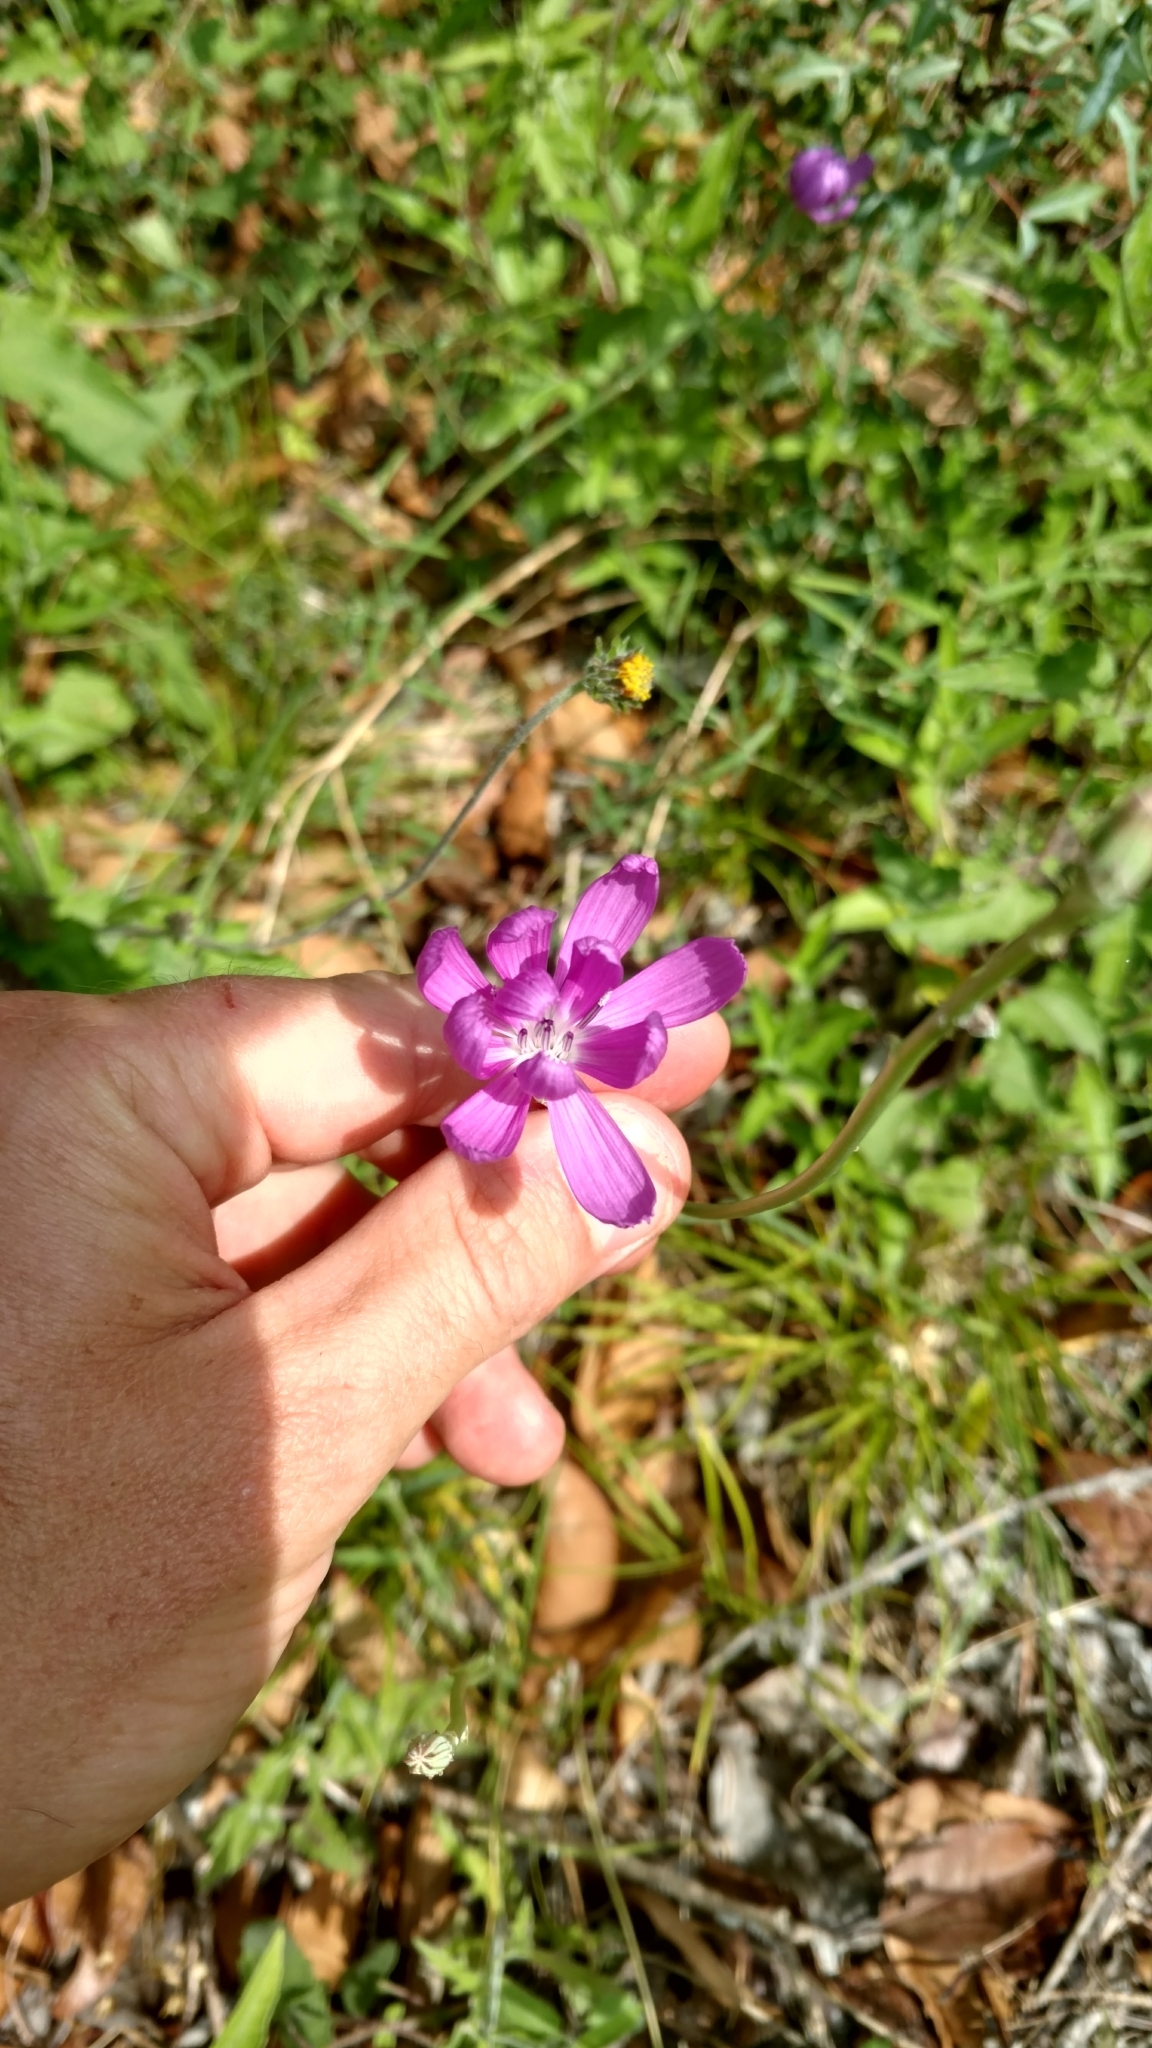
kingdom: Plantae
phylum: Tracheophyta
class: Magnoliopsida
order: Asterales
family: Asteraceae
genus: Lygodesmia
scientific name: Lygodesmia texana
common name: Texas skeleton-plant
